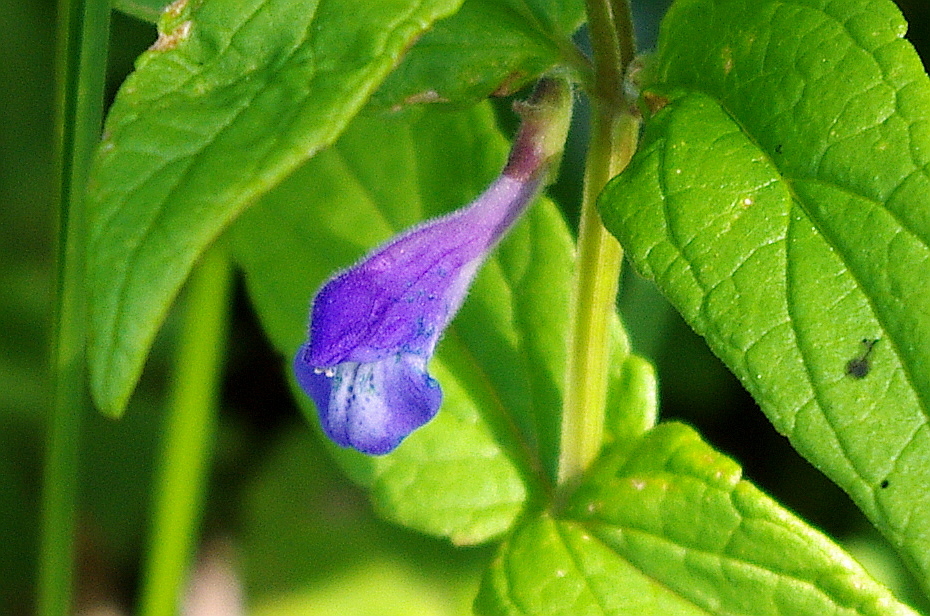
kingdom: Plantae
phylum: Tracheophyta
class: Magnoliopsida
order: Lamiales
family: Lamiaceae
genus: Scutellaria
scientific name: Scutellaria galericulata
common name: Skullcap
